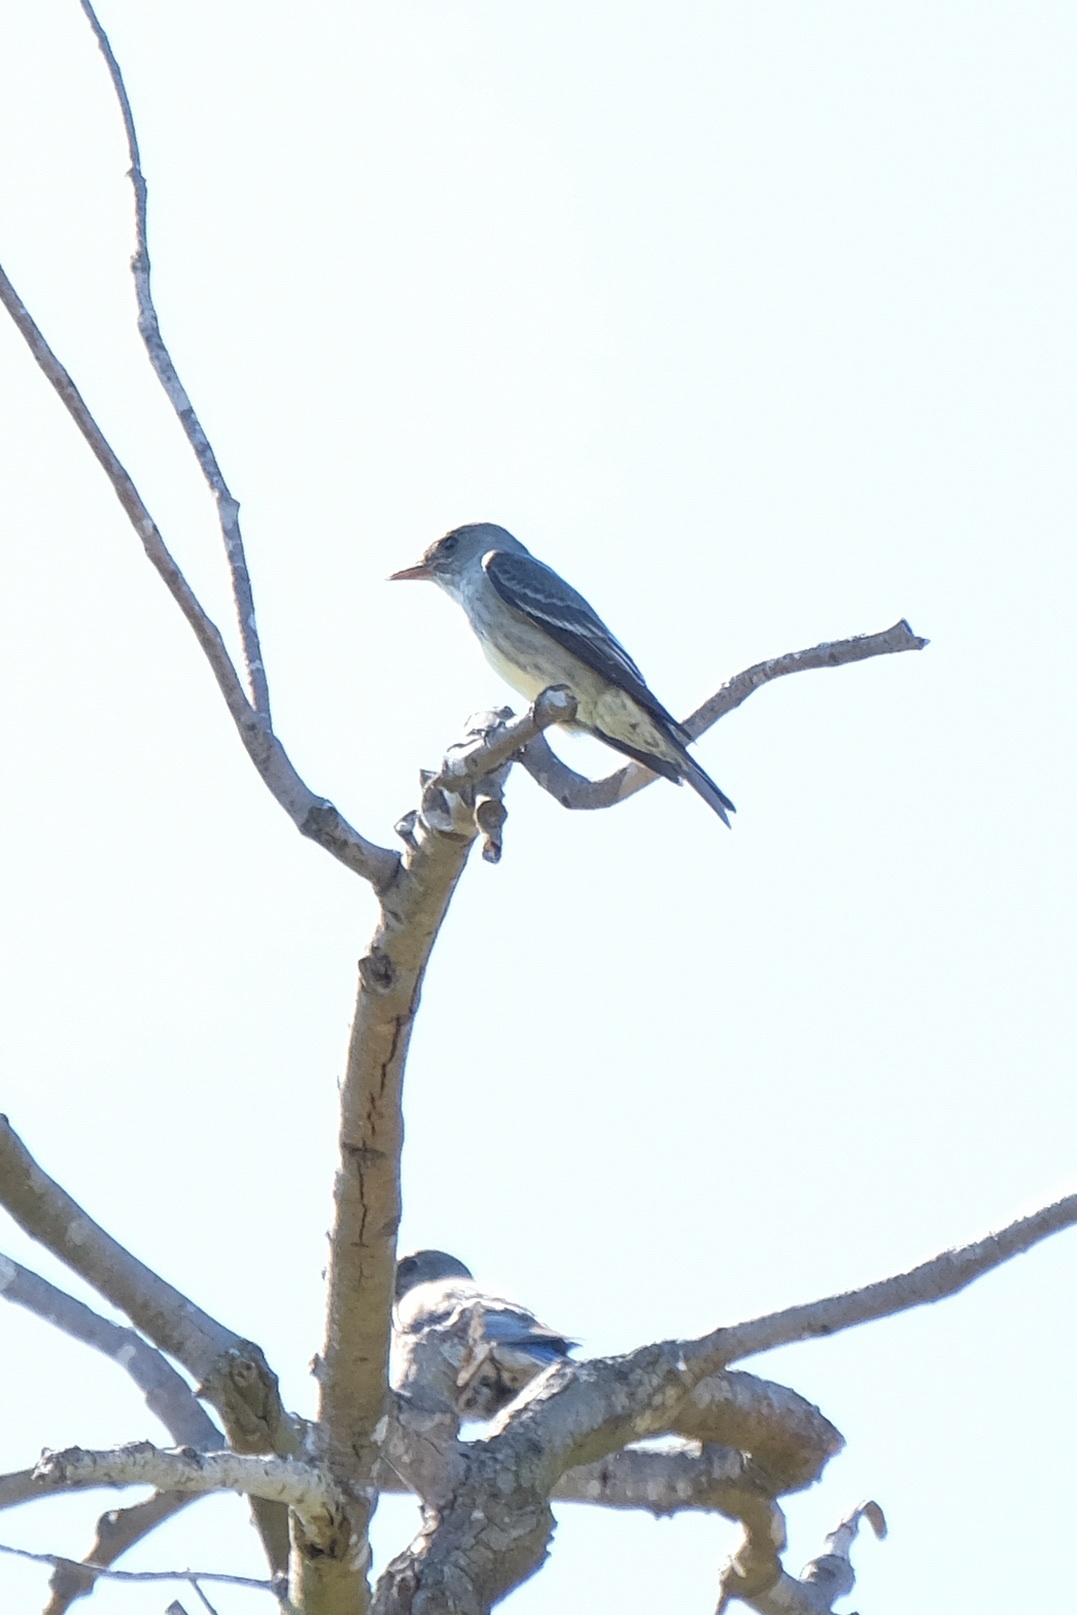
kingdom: Animalia
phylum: Chordata
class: Aves
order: Passeriformes
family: Tyrannidae
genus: Contopus
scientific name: Contopus cooperi
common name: Olive-sided flycatcher
